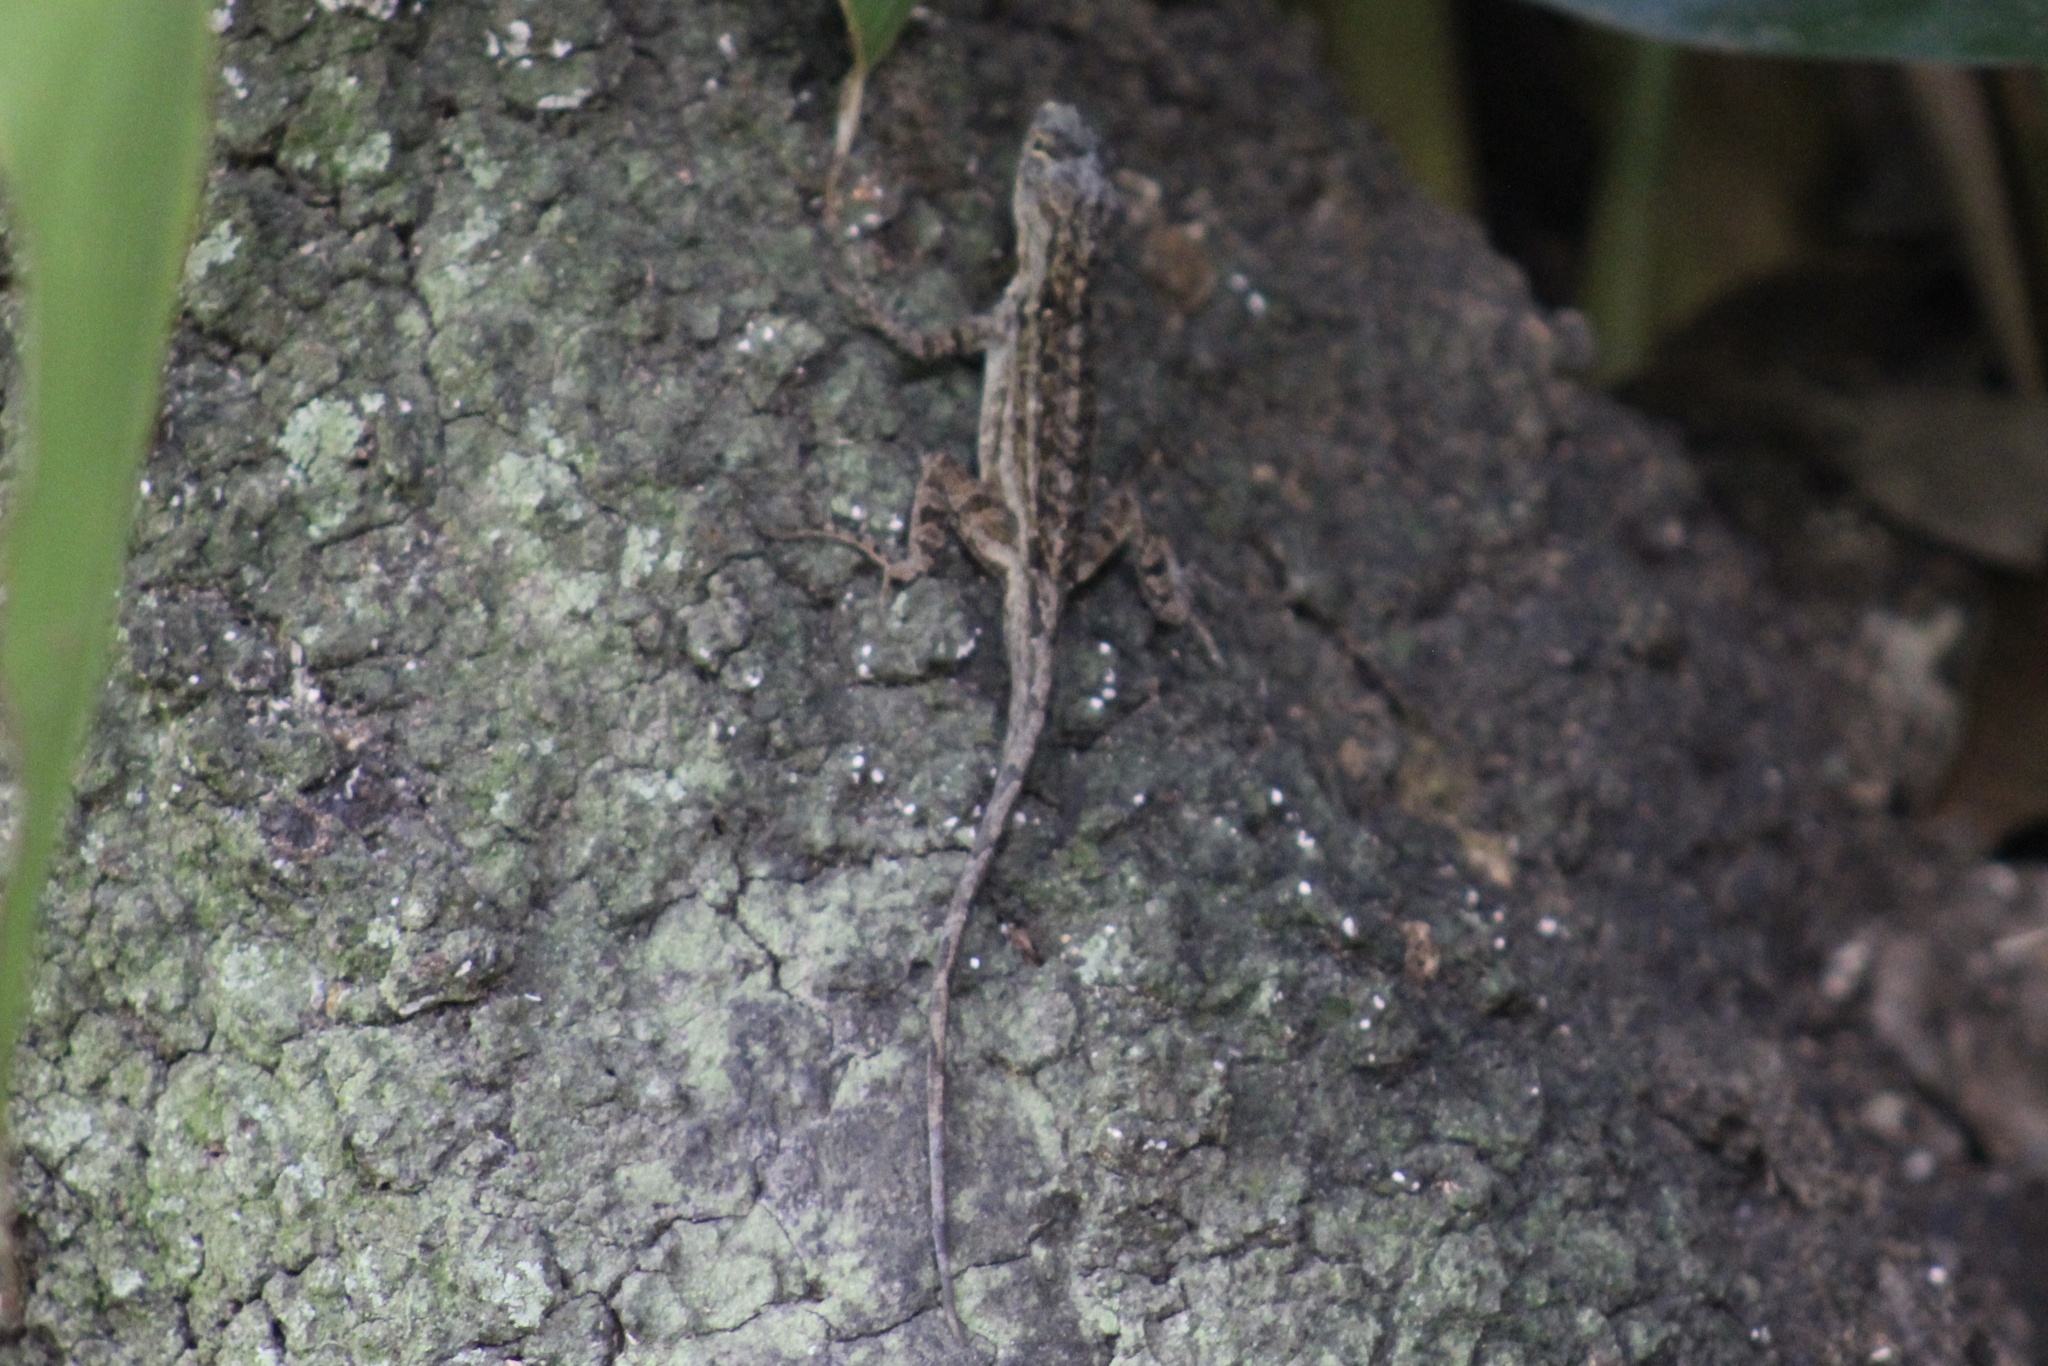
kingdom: Animalia
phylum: Chordata
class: Squamata
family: Dactyloidae
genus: Anolis
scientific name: Anolis sagrei
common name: Brown anole
